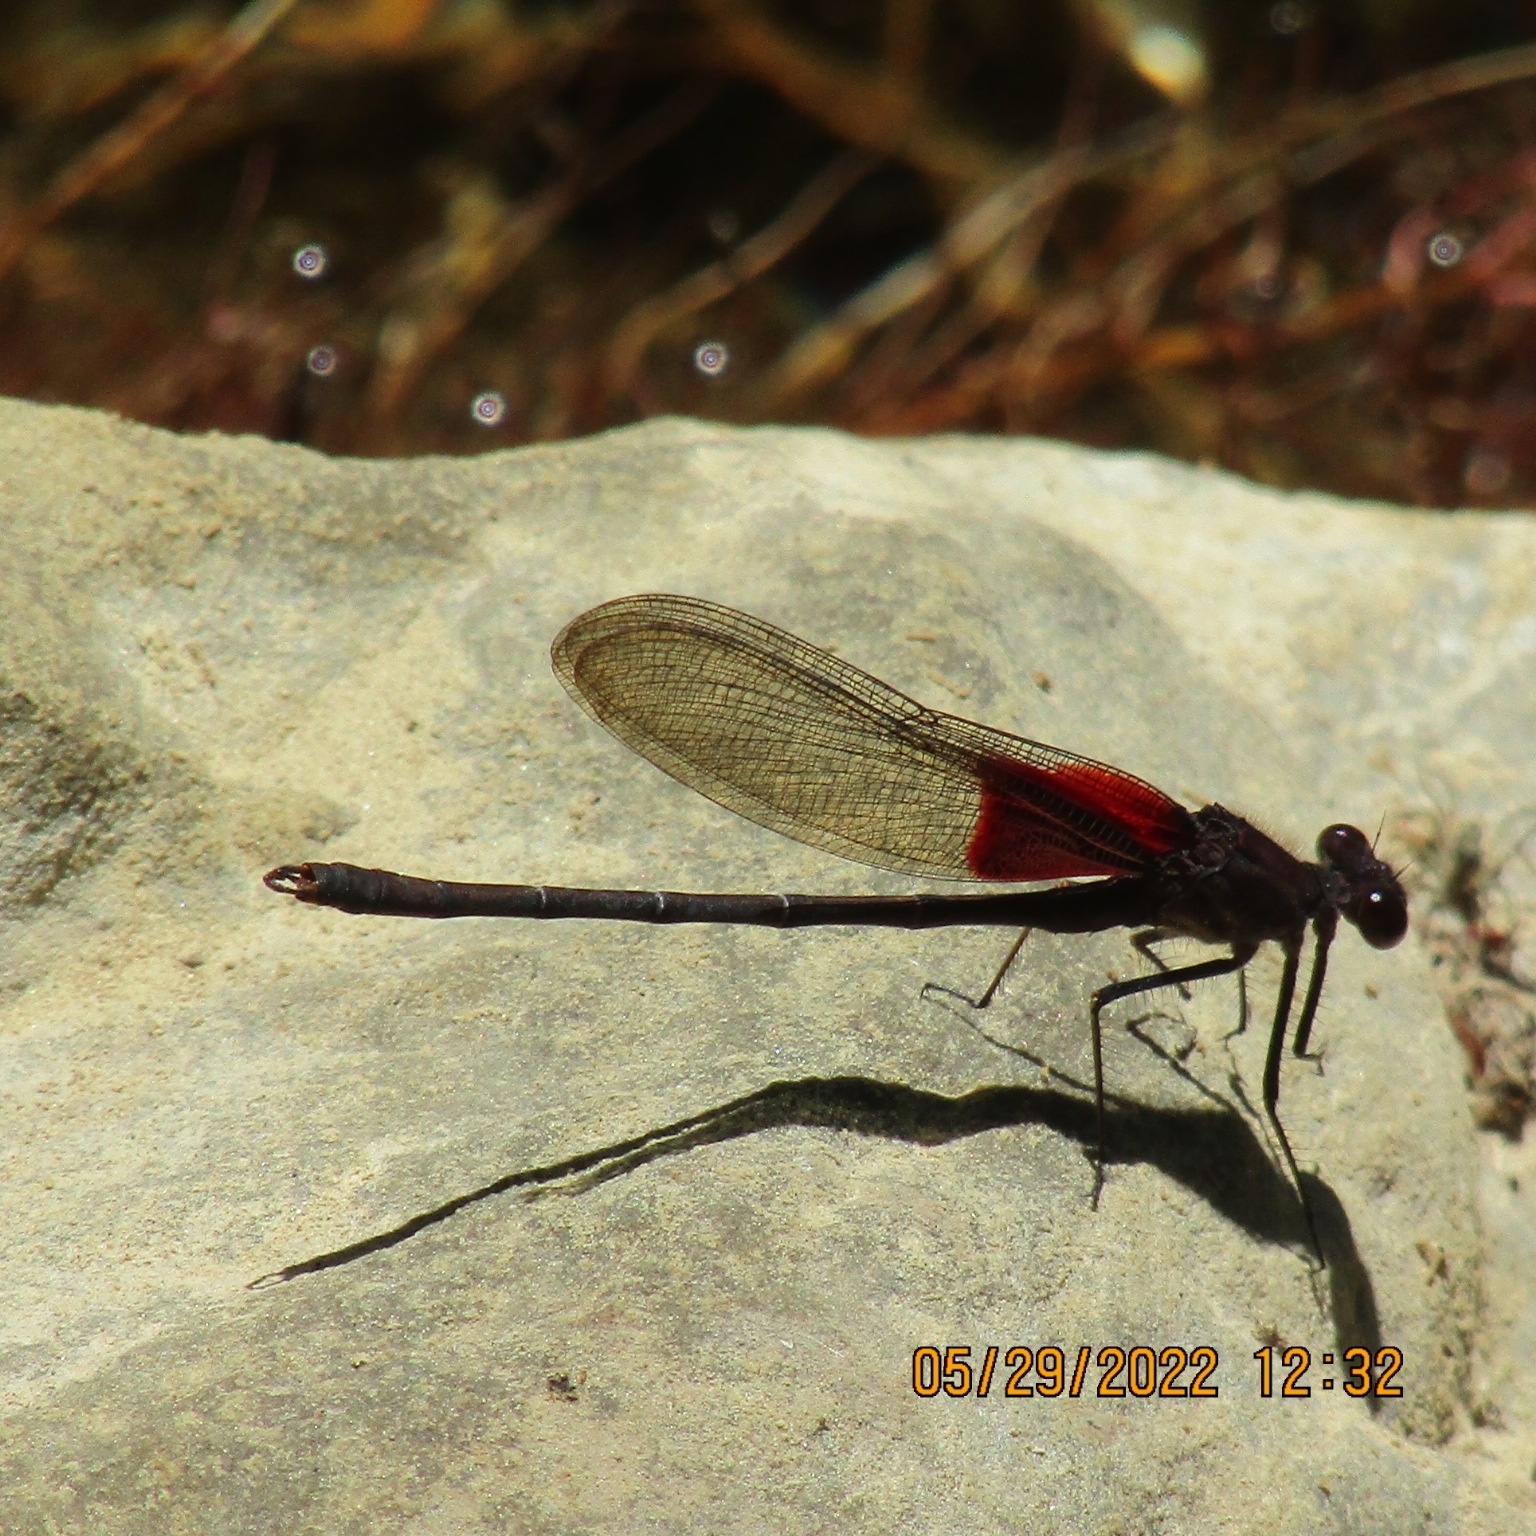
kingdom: Animalia
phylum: Arthropoda
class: Insecta
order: Odonata
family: Calopterygidae
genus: Hetaerina
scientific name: Hetaerina americana
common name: American rubyspot
